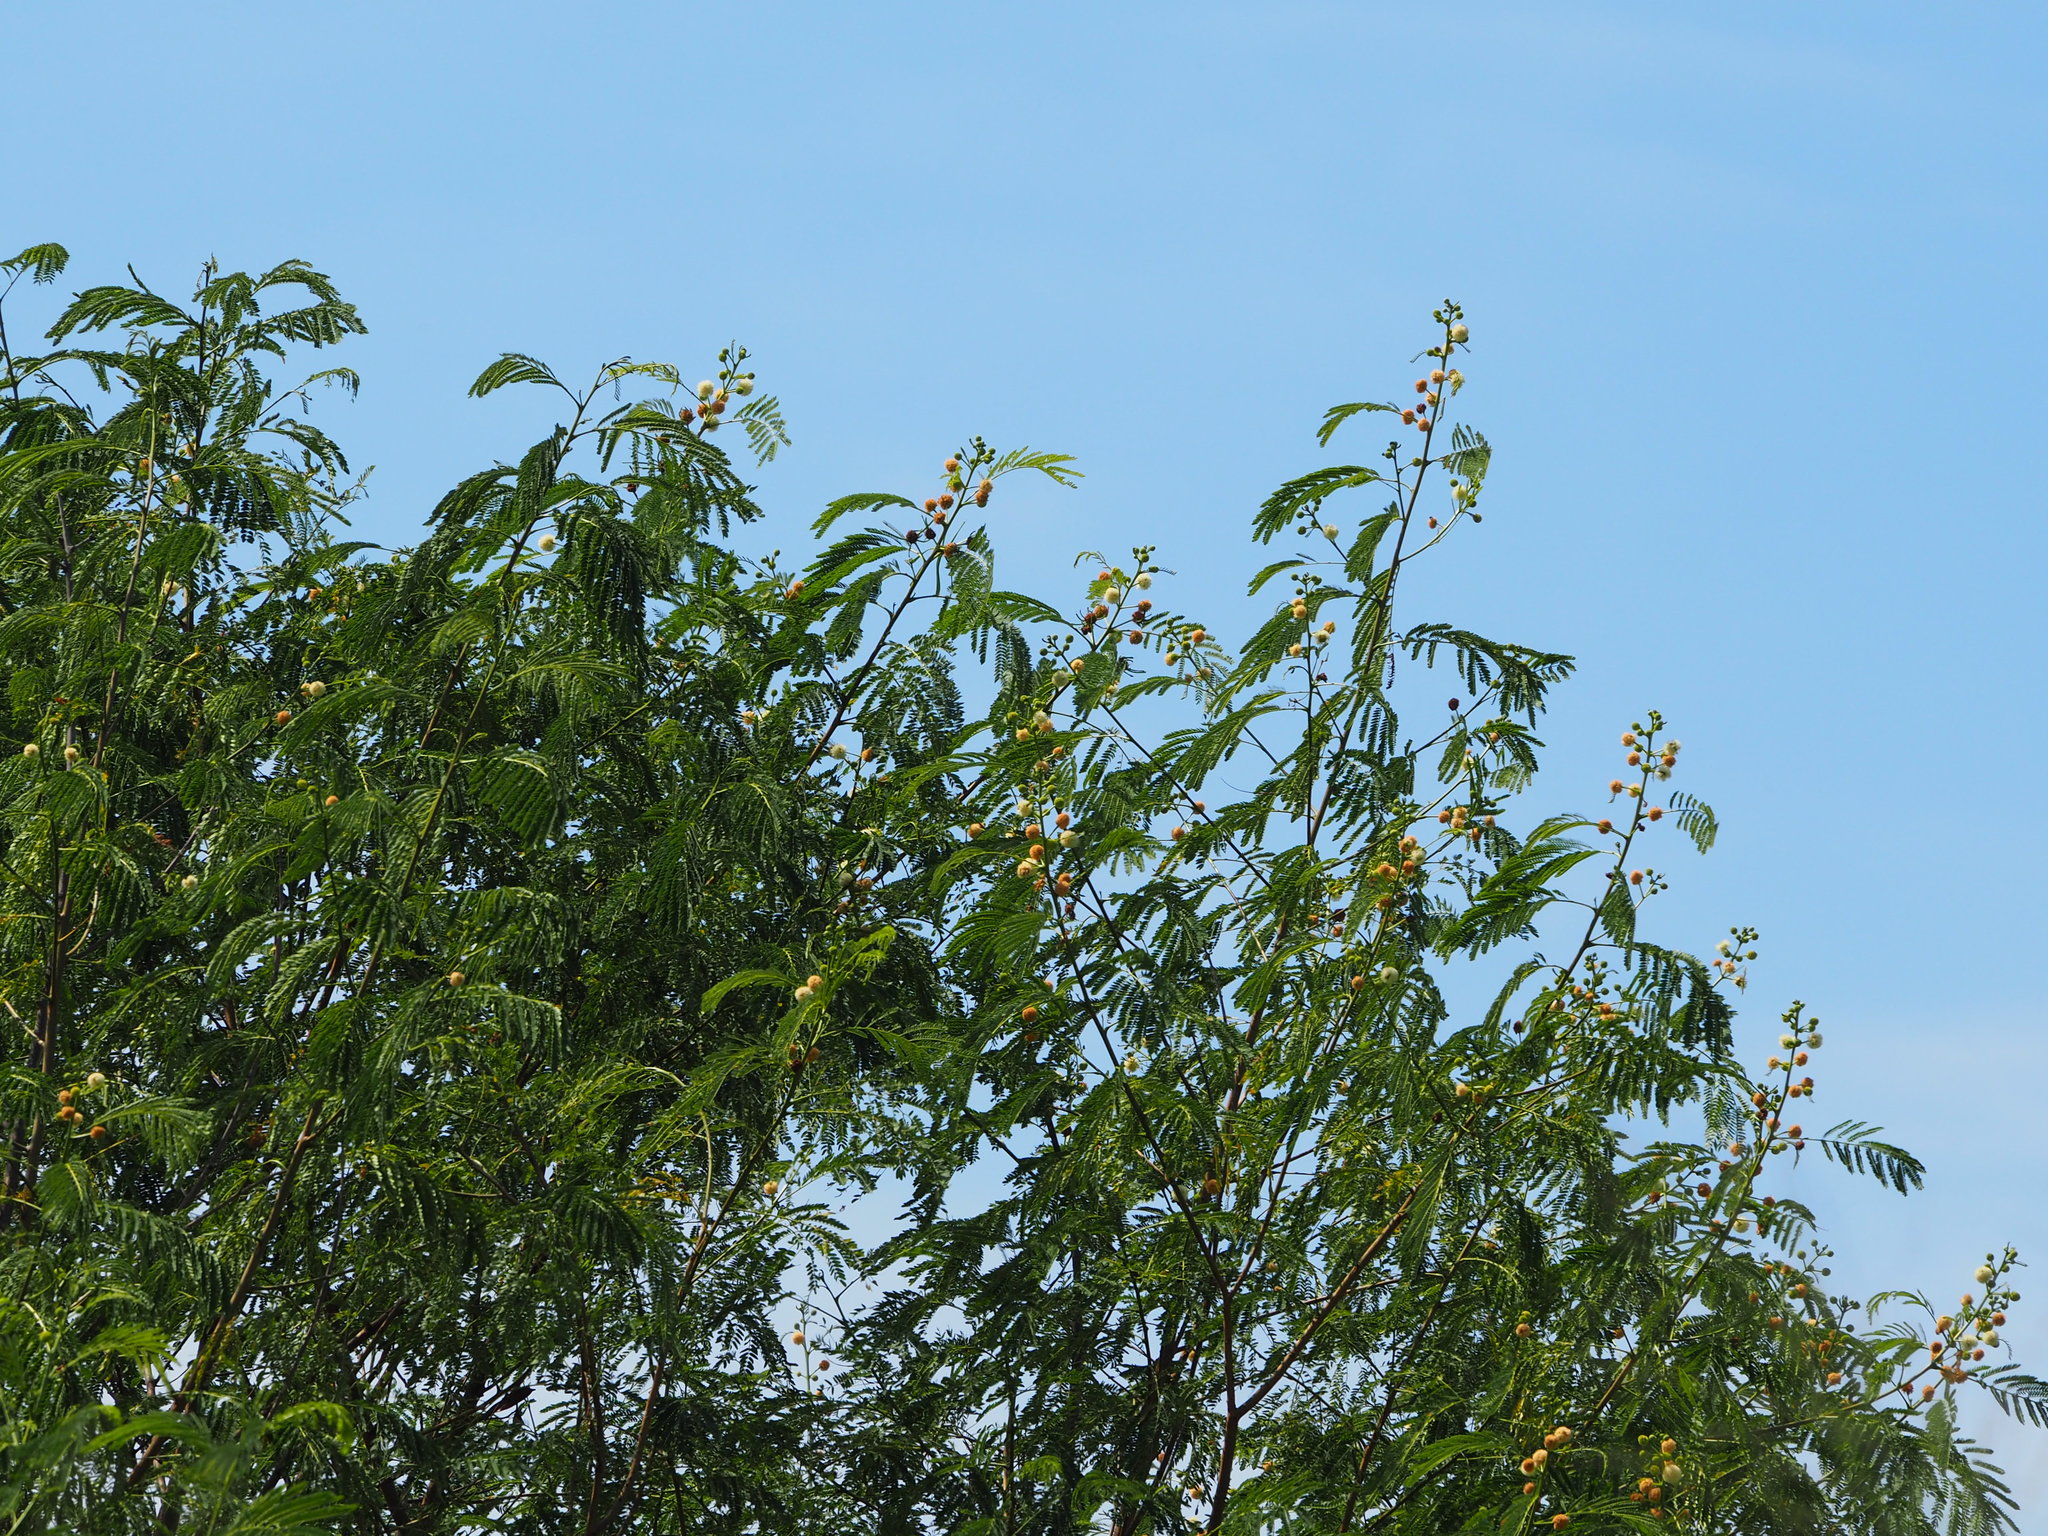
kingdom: Plantae
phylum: Tracheophyta
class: Magnoliopsida
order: Fabales
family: Fabaceae
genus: Leucaena
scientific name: Leucaena leucocephala
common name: White leadtree
